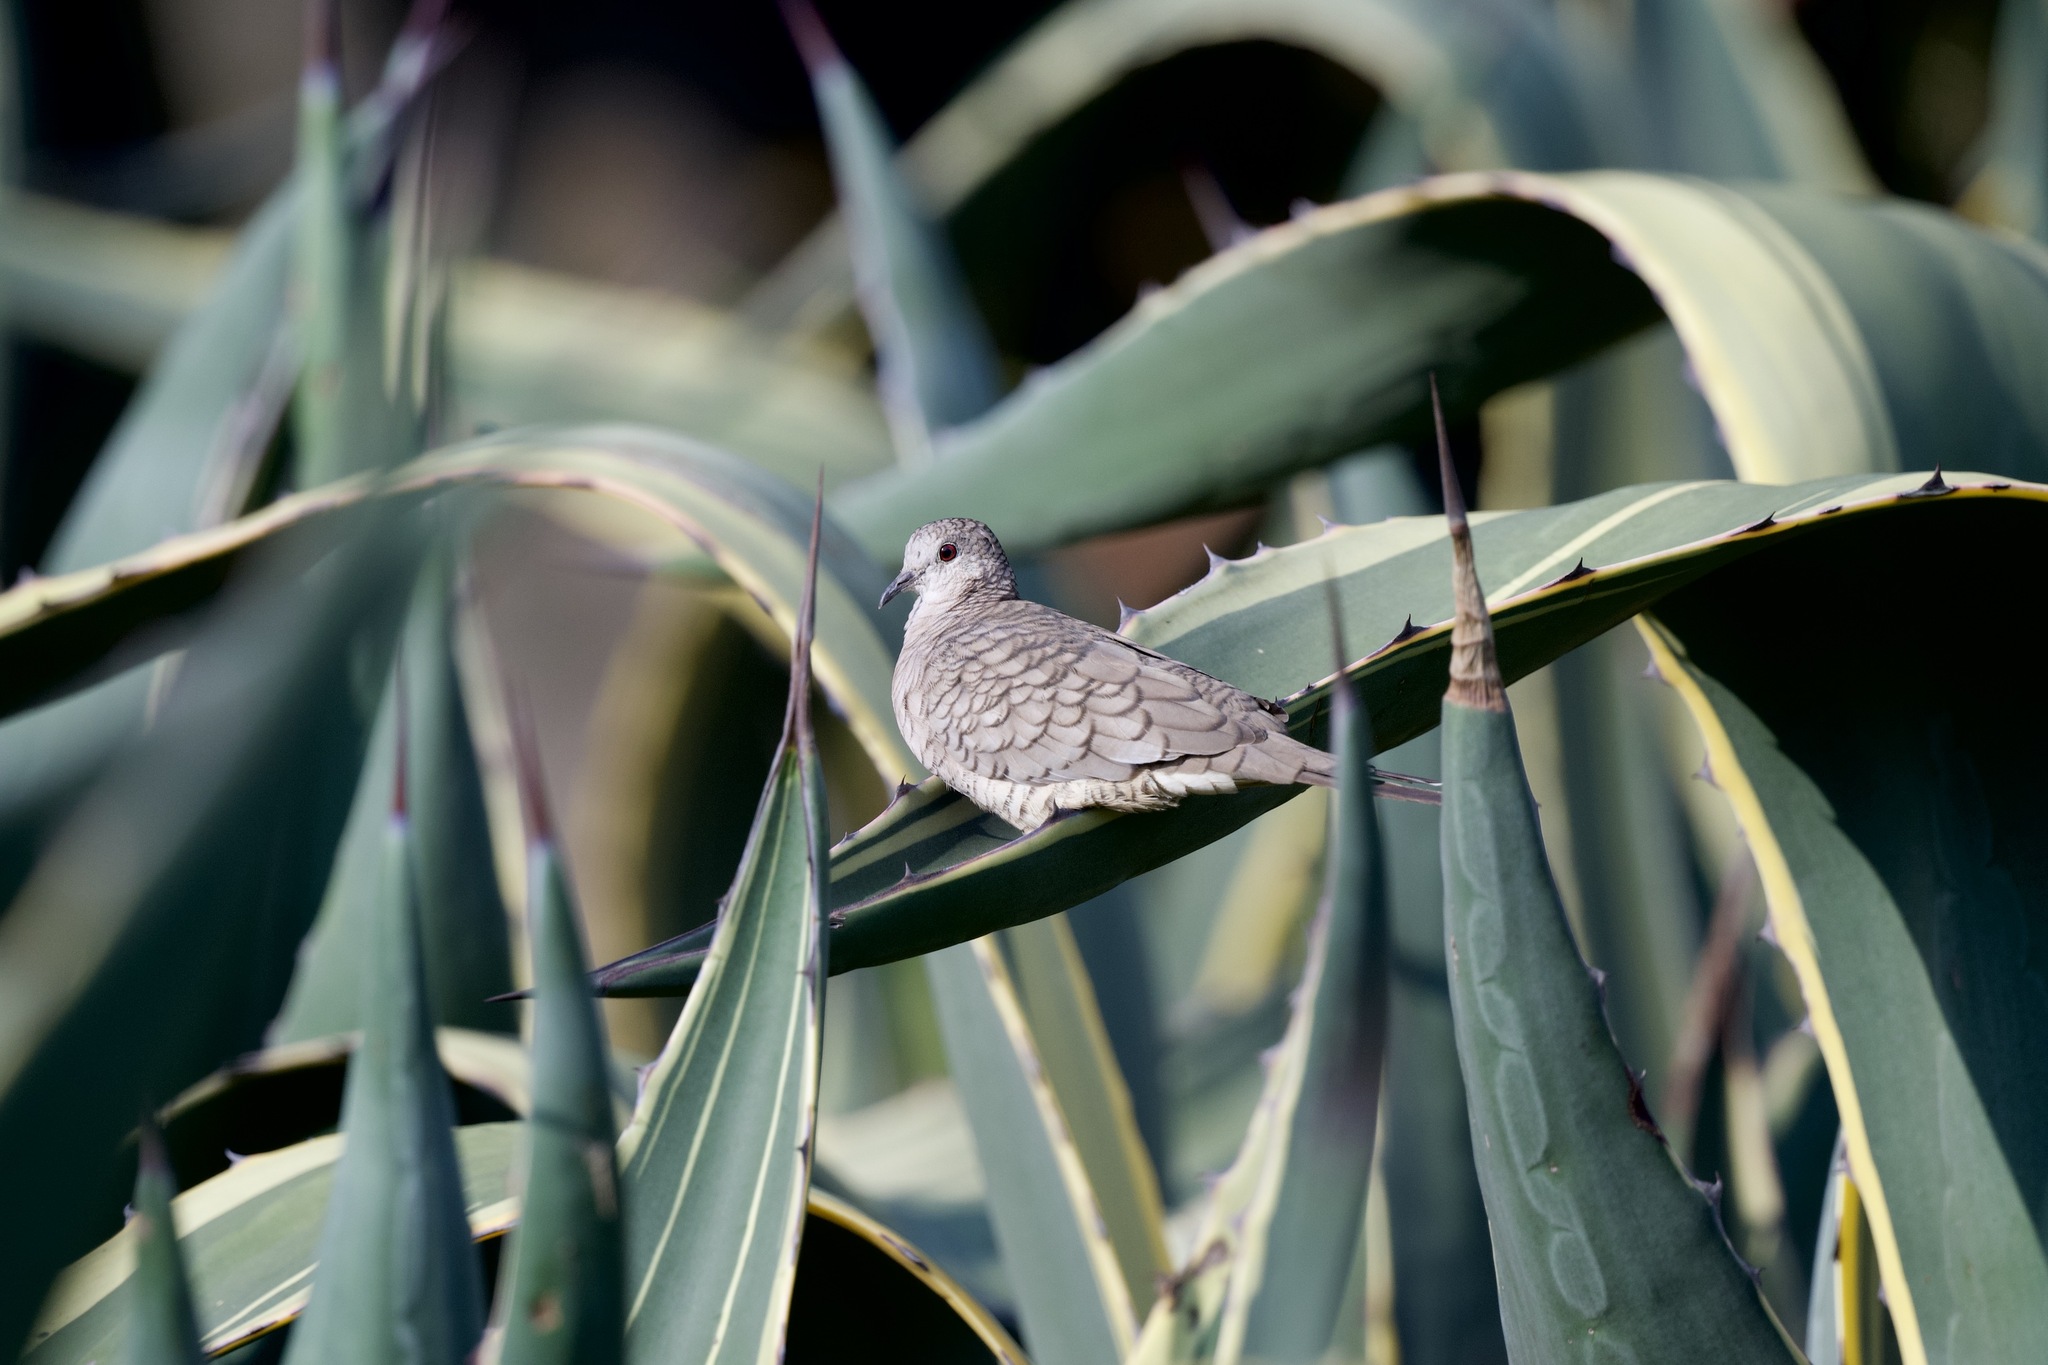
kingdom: Animalia
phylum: Chordata
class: Aves
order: Columbiformes
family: Columbidae
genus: Columbina
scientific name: Columbina inca
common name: Inca dove
